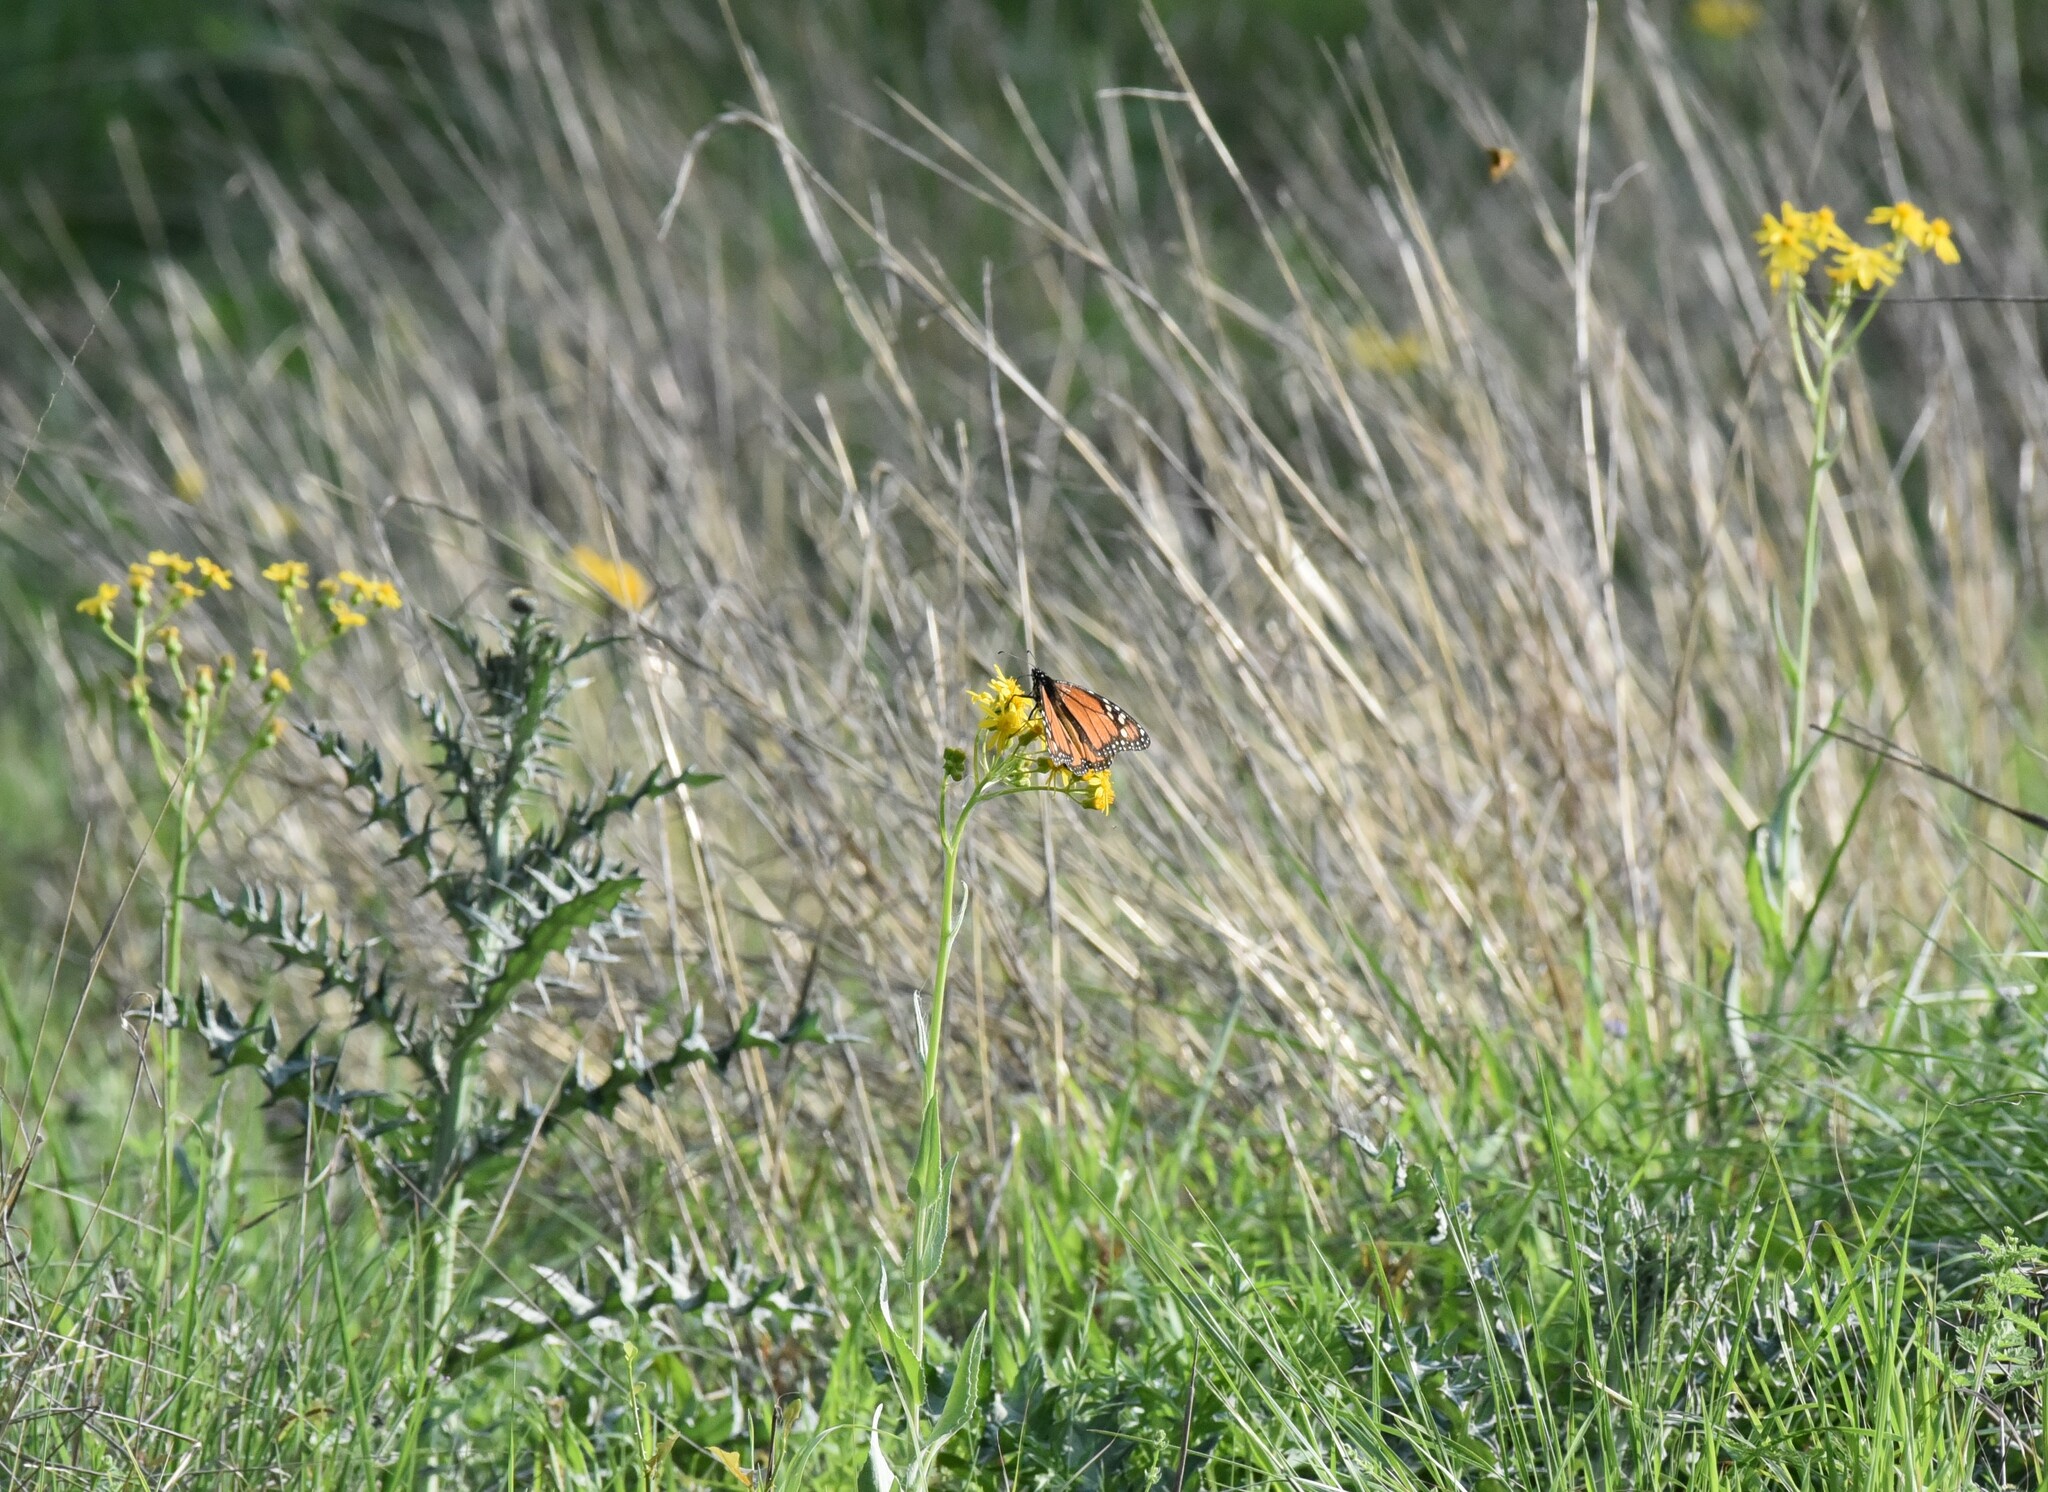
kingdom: Animalia
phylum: Arthropoda
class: Insecta
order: Lepidoptera
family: Nymphalidae
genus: Danaus
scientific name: Danaus plexippus
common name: Monarch
